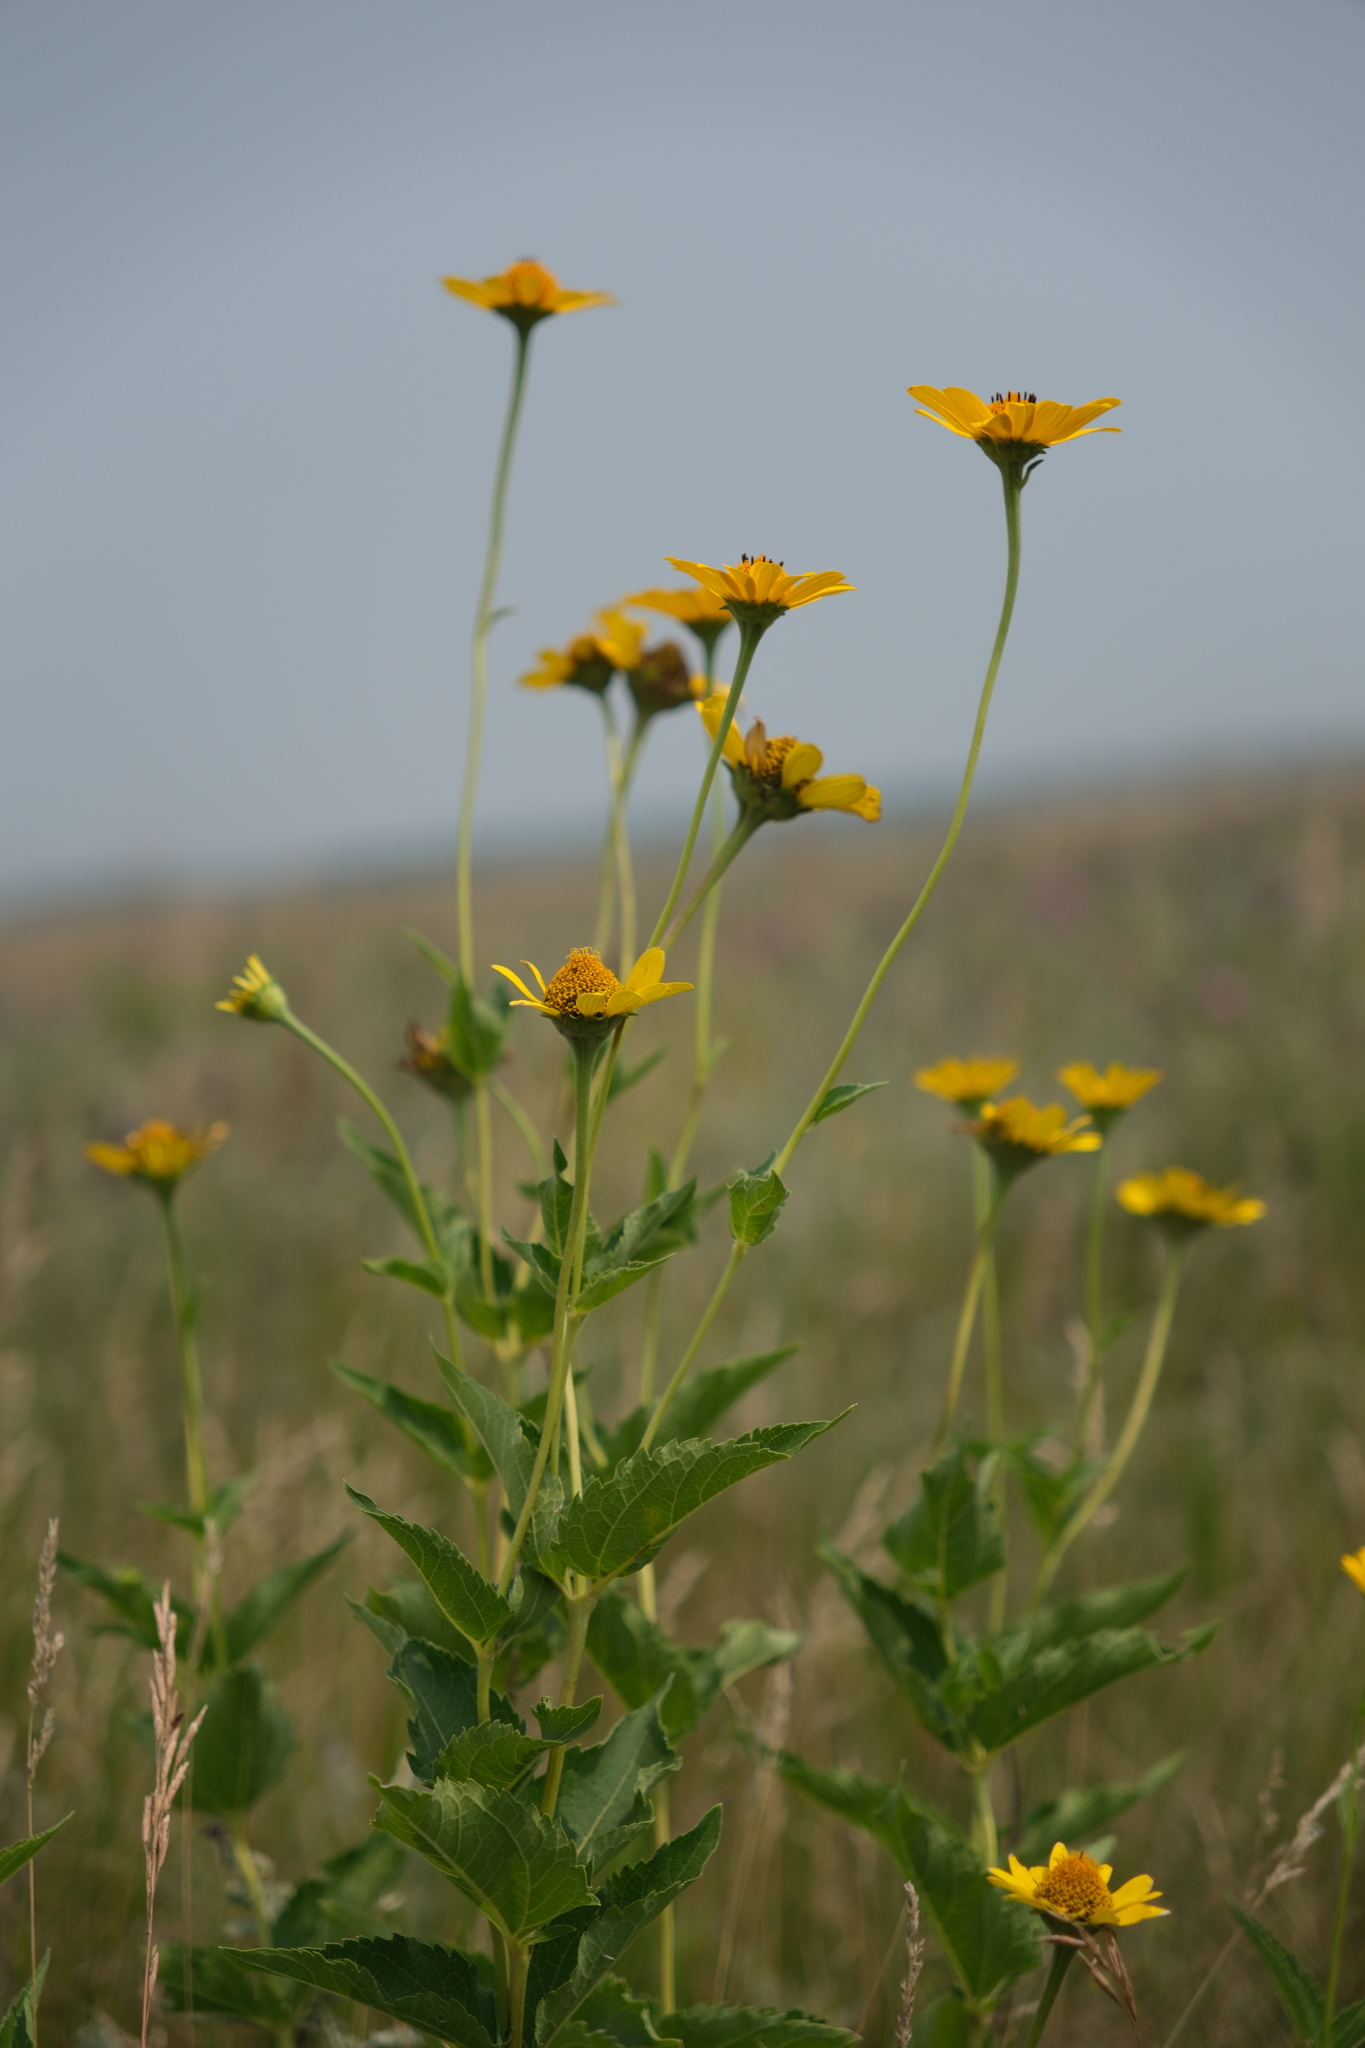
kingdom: Plantae
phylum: Tracheophyta
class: Magnoliopsida
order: Asterales
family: Asteraceae
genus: Heliopsis
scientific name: Heliopsis helianthoides
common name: False sunflower
